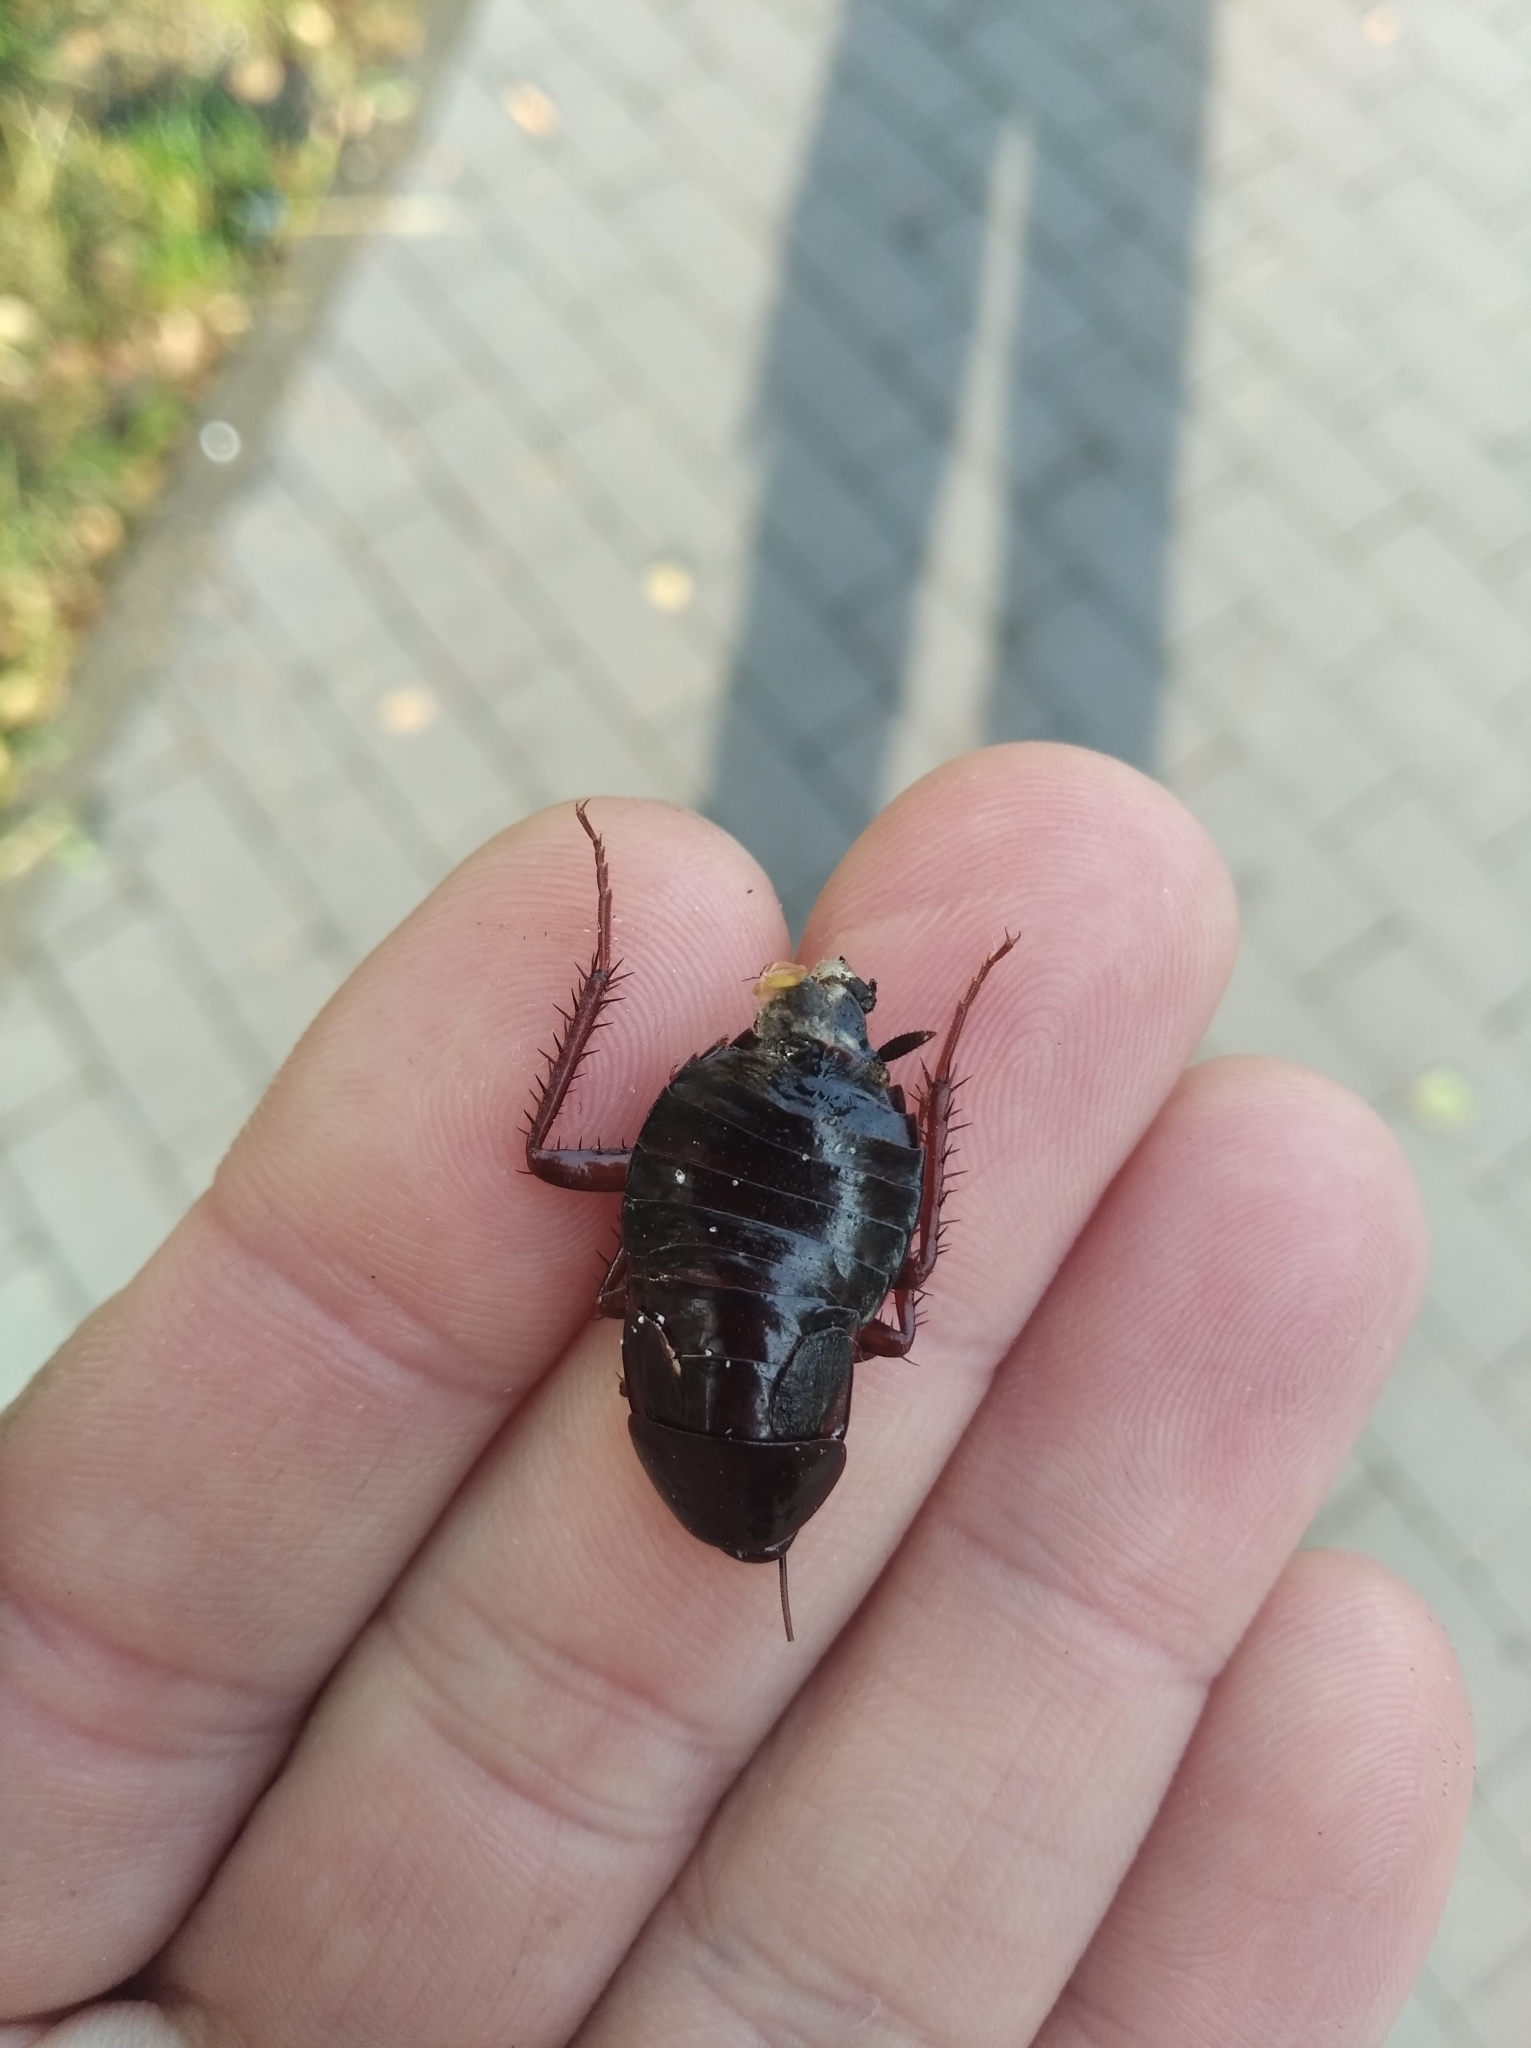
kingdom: Animalia
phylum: Arthropoda
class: Insecta
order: Blattodea
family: Blattidae
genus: Blatta
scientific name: Blatta orientalis
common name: Oriental cockroach
